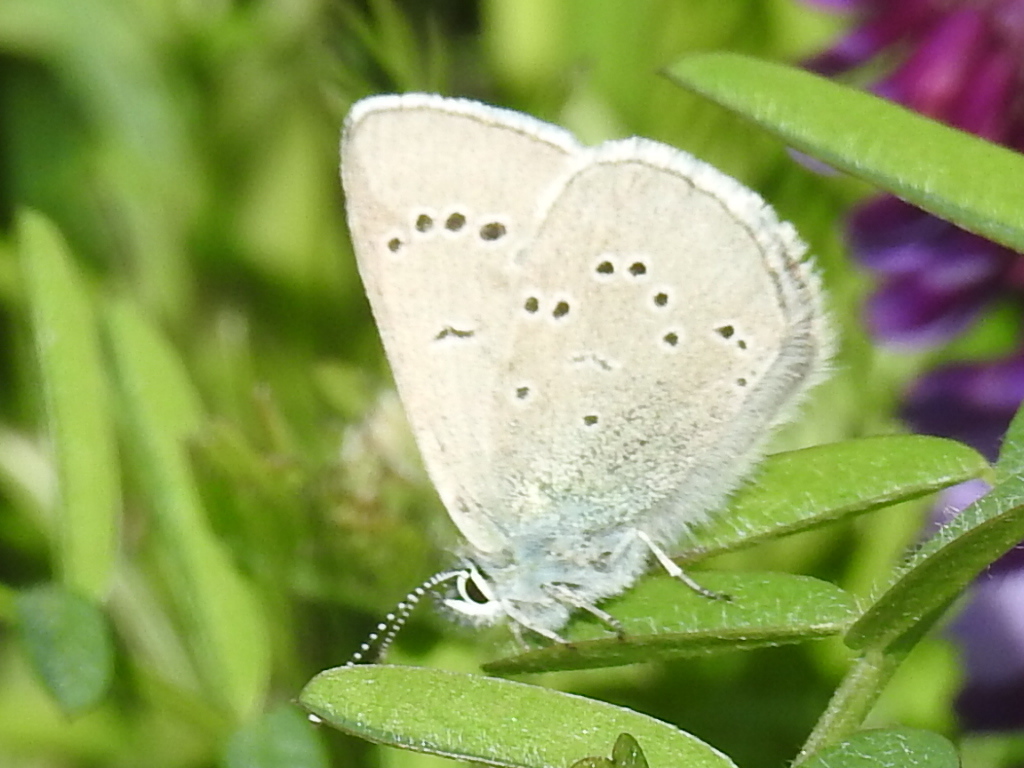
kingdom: Animalia
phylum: Arthropoda
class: Insecta
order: Lepidoptera
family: Lycaenidae
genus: Glaucopsyche
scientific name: Glaucopsyche lygdamus
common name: Silvery blue
